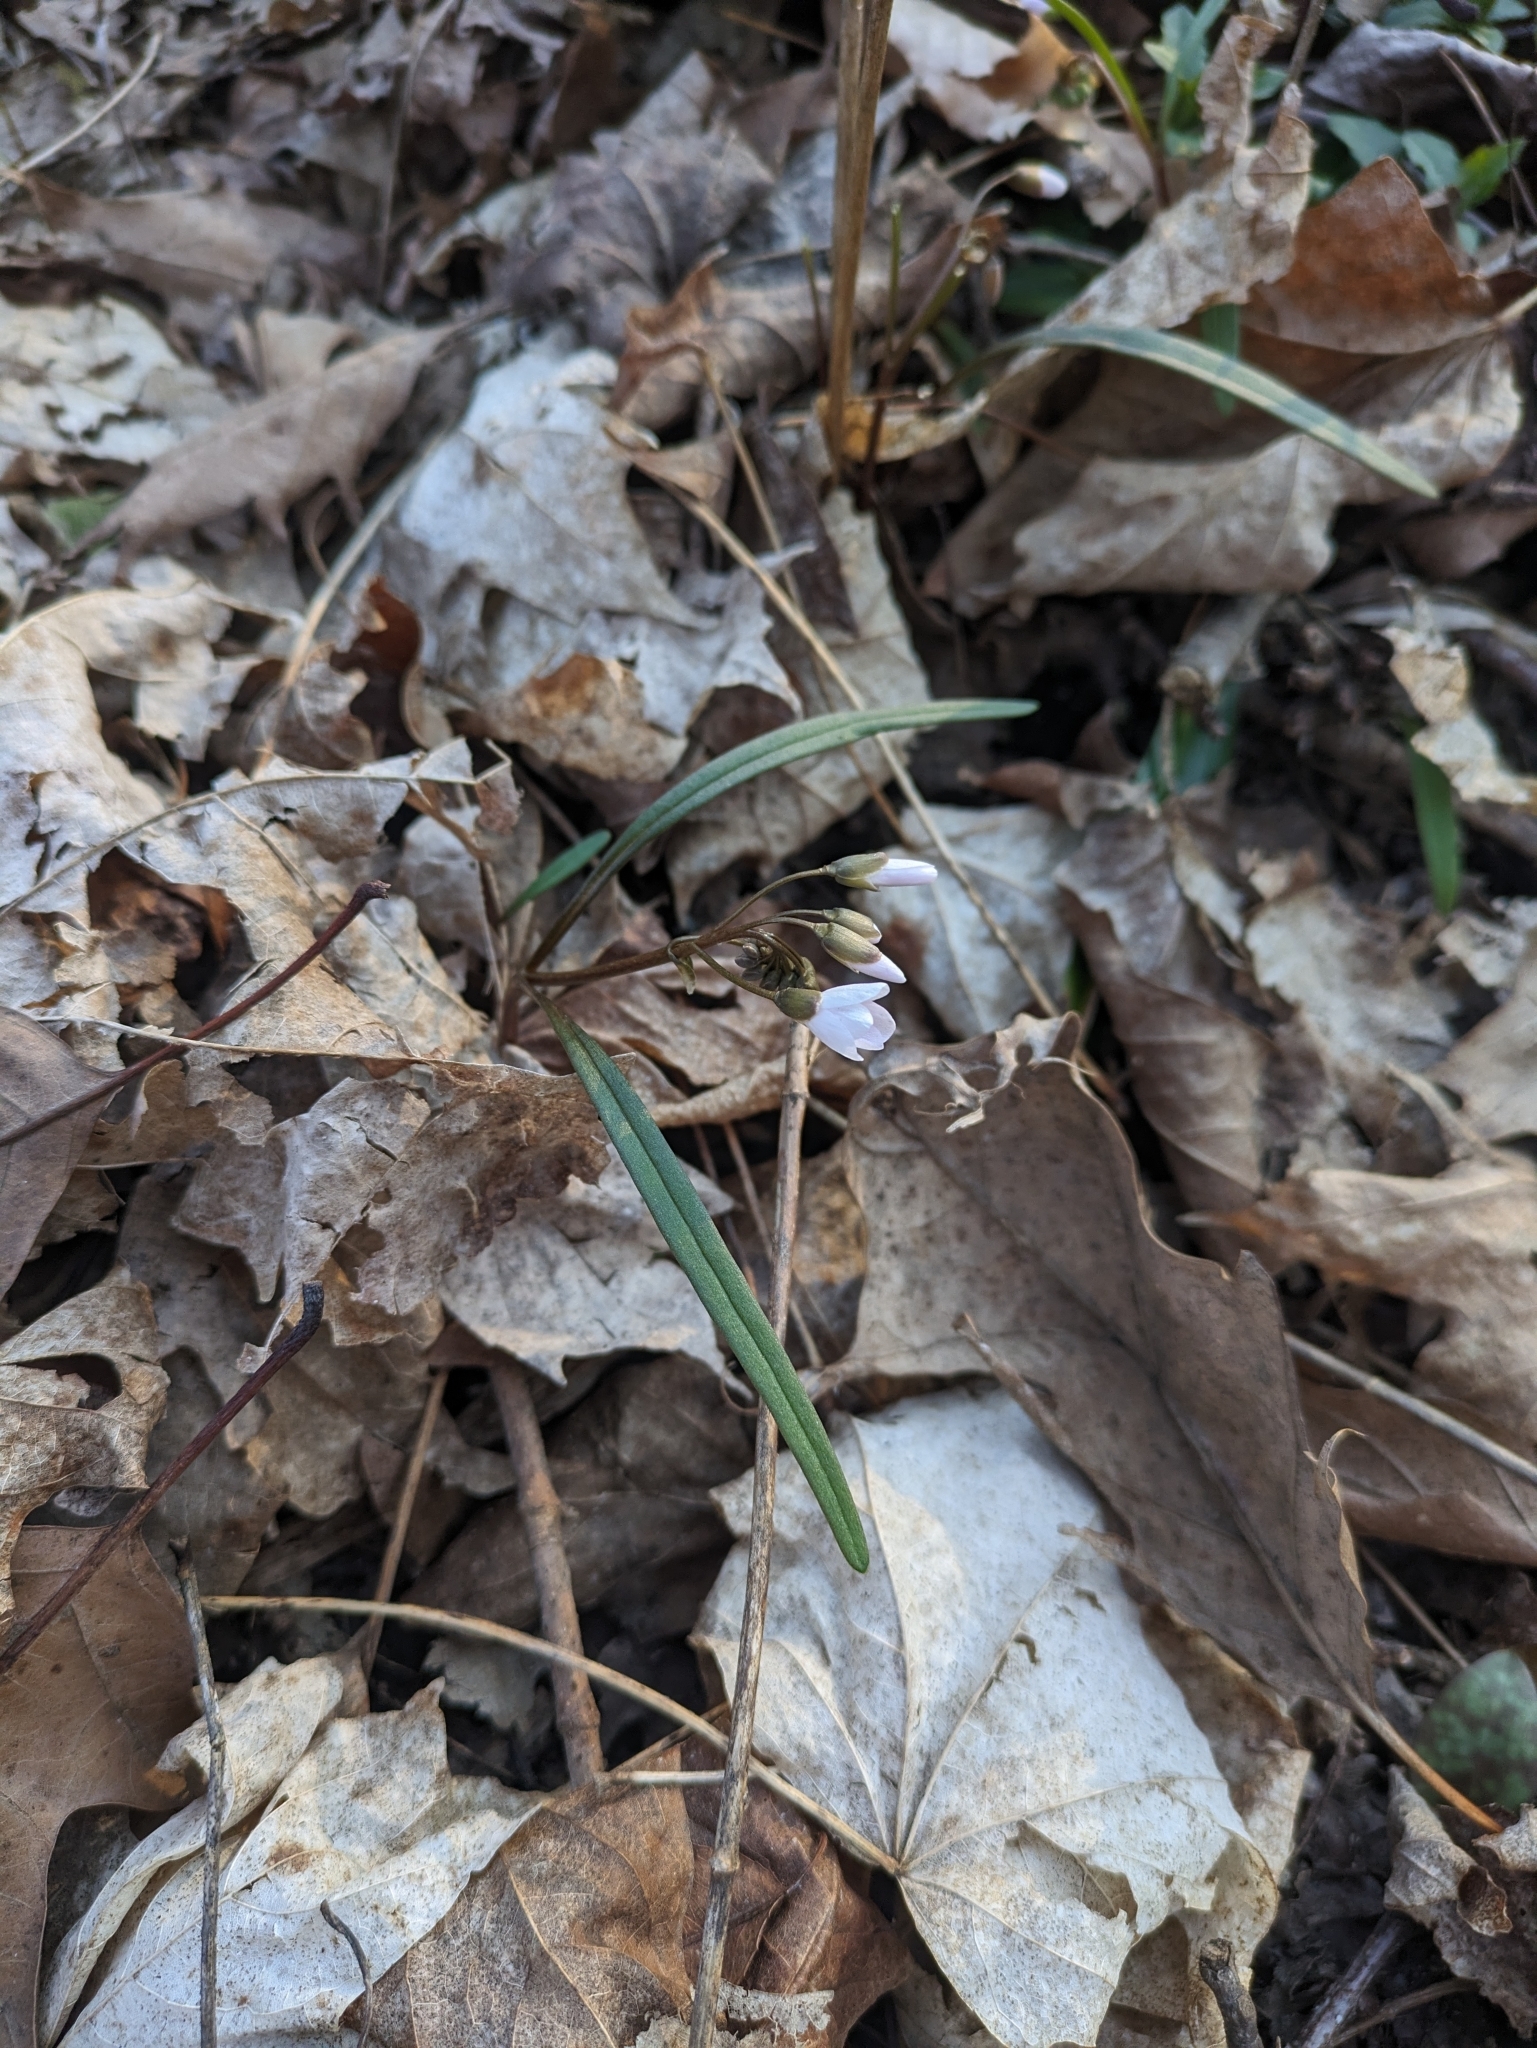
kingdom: Plantae
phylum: Tracheophyta
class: Magnoliopsida
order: Caryophyllales
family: Montiaceae
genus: Claytonia
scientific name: Claytonia virginica
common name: Virginia springbeauty
